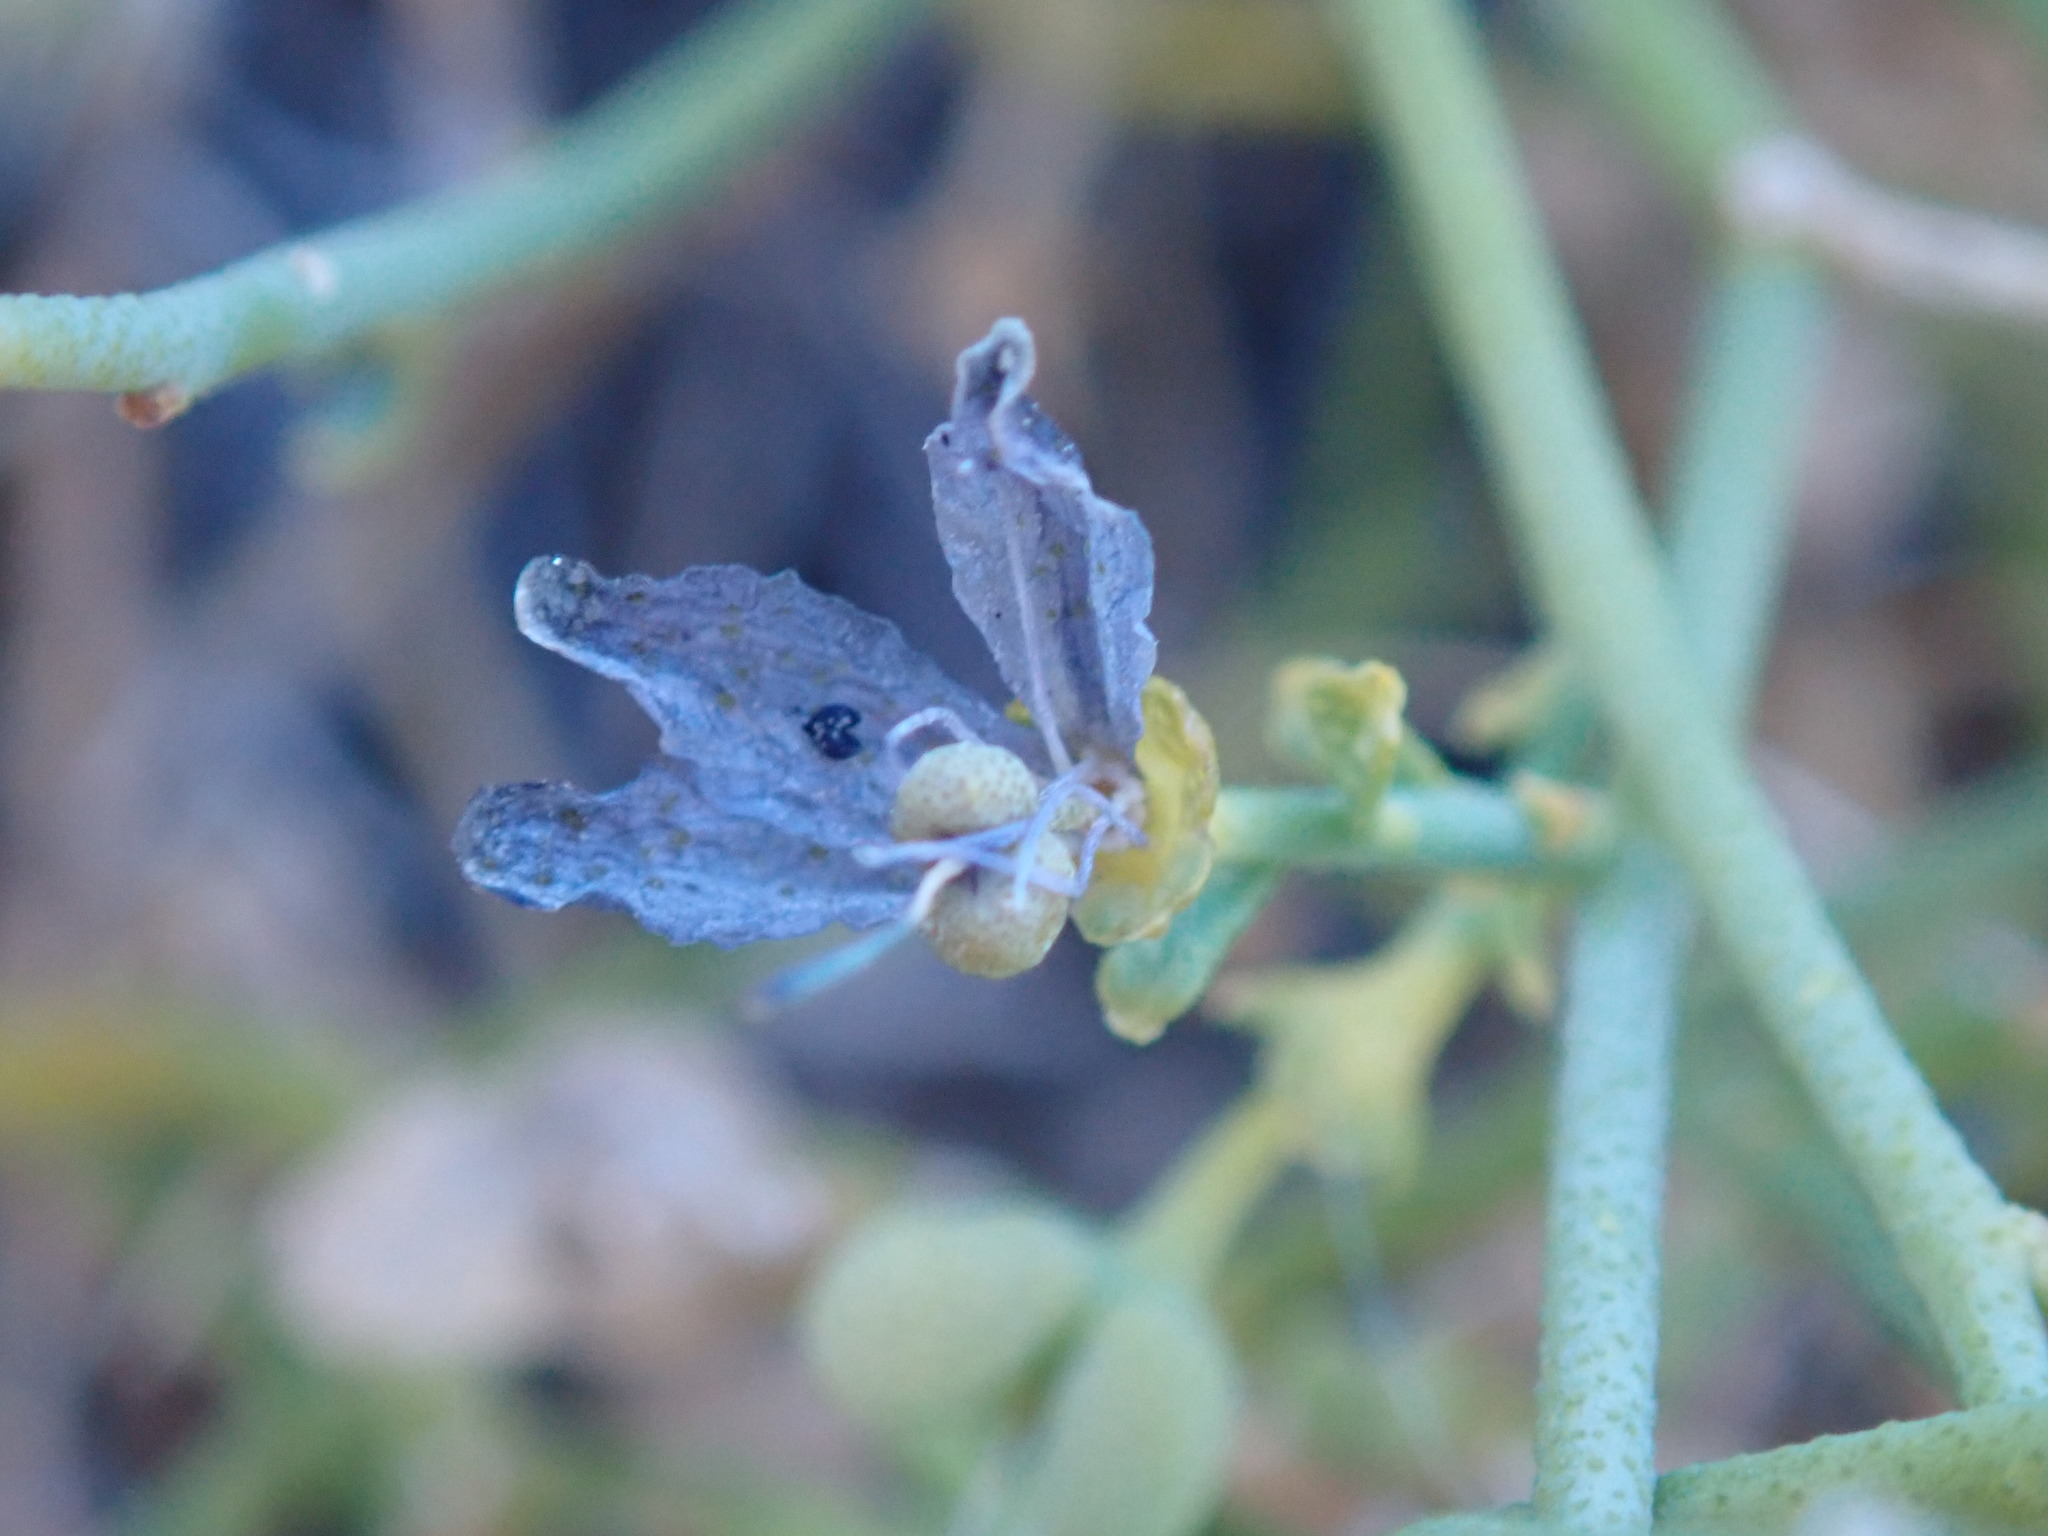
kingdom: Plantae
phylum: Tracheophyta
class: Magnoliopsida
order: Sapindales
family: Rutaceae
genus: Thamnosma
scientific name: Thamnosma montana
